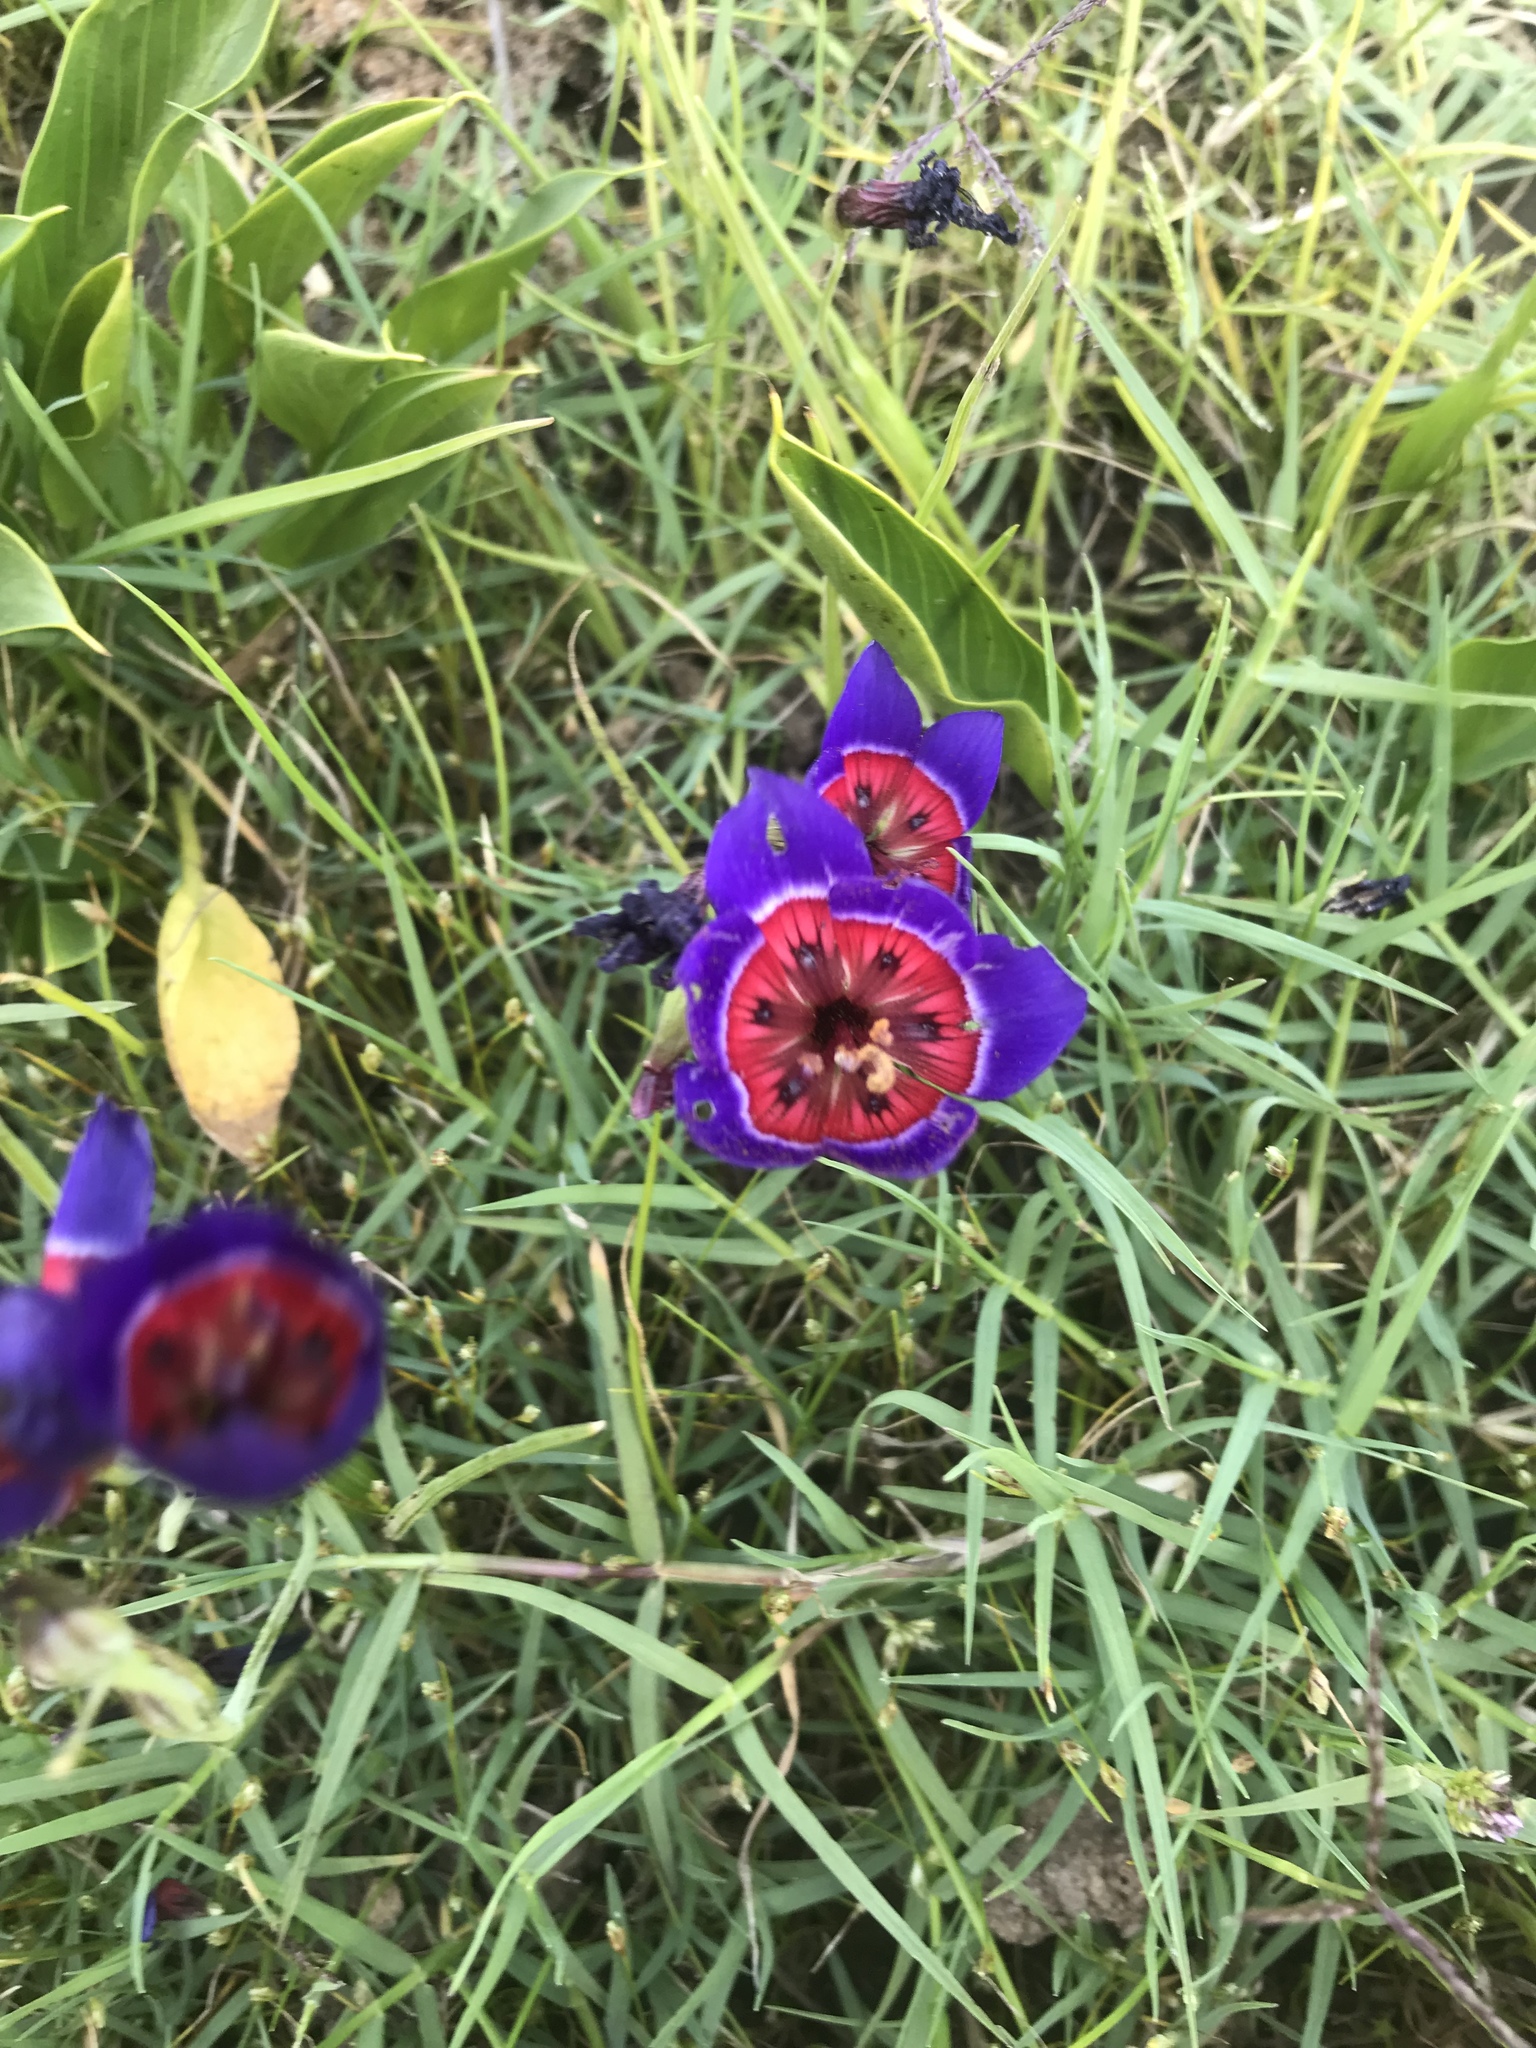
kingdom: Plantae
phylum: Tracheophyta
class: Liliopsida
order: Asparagales
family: Iridaceae
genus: Geissorhiza
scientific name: Geissorhiza radians
